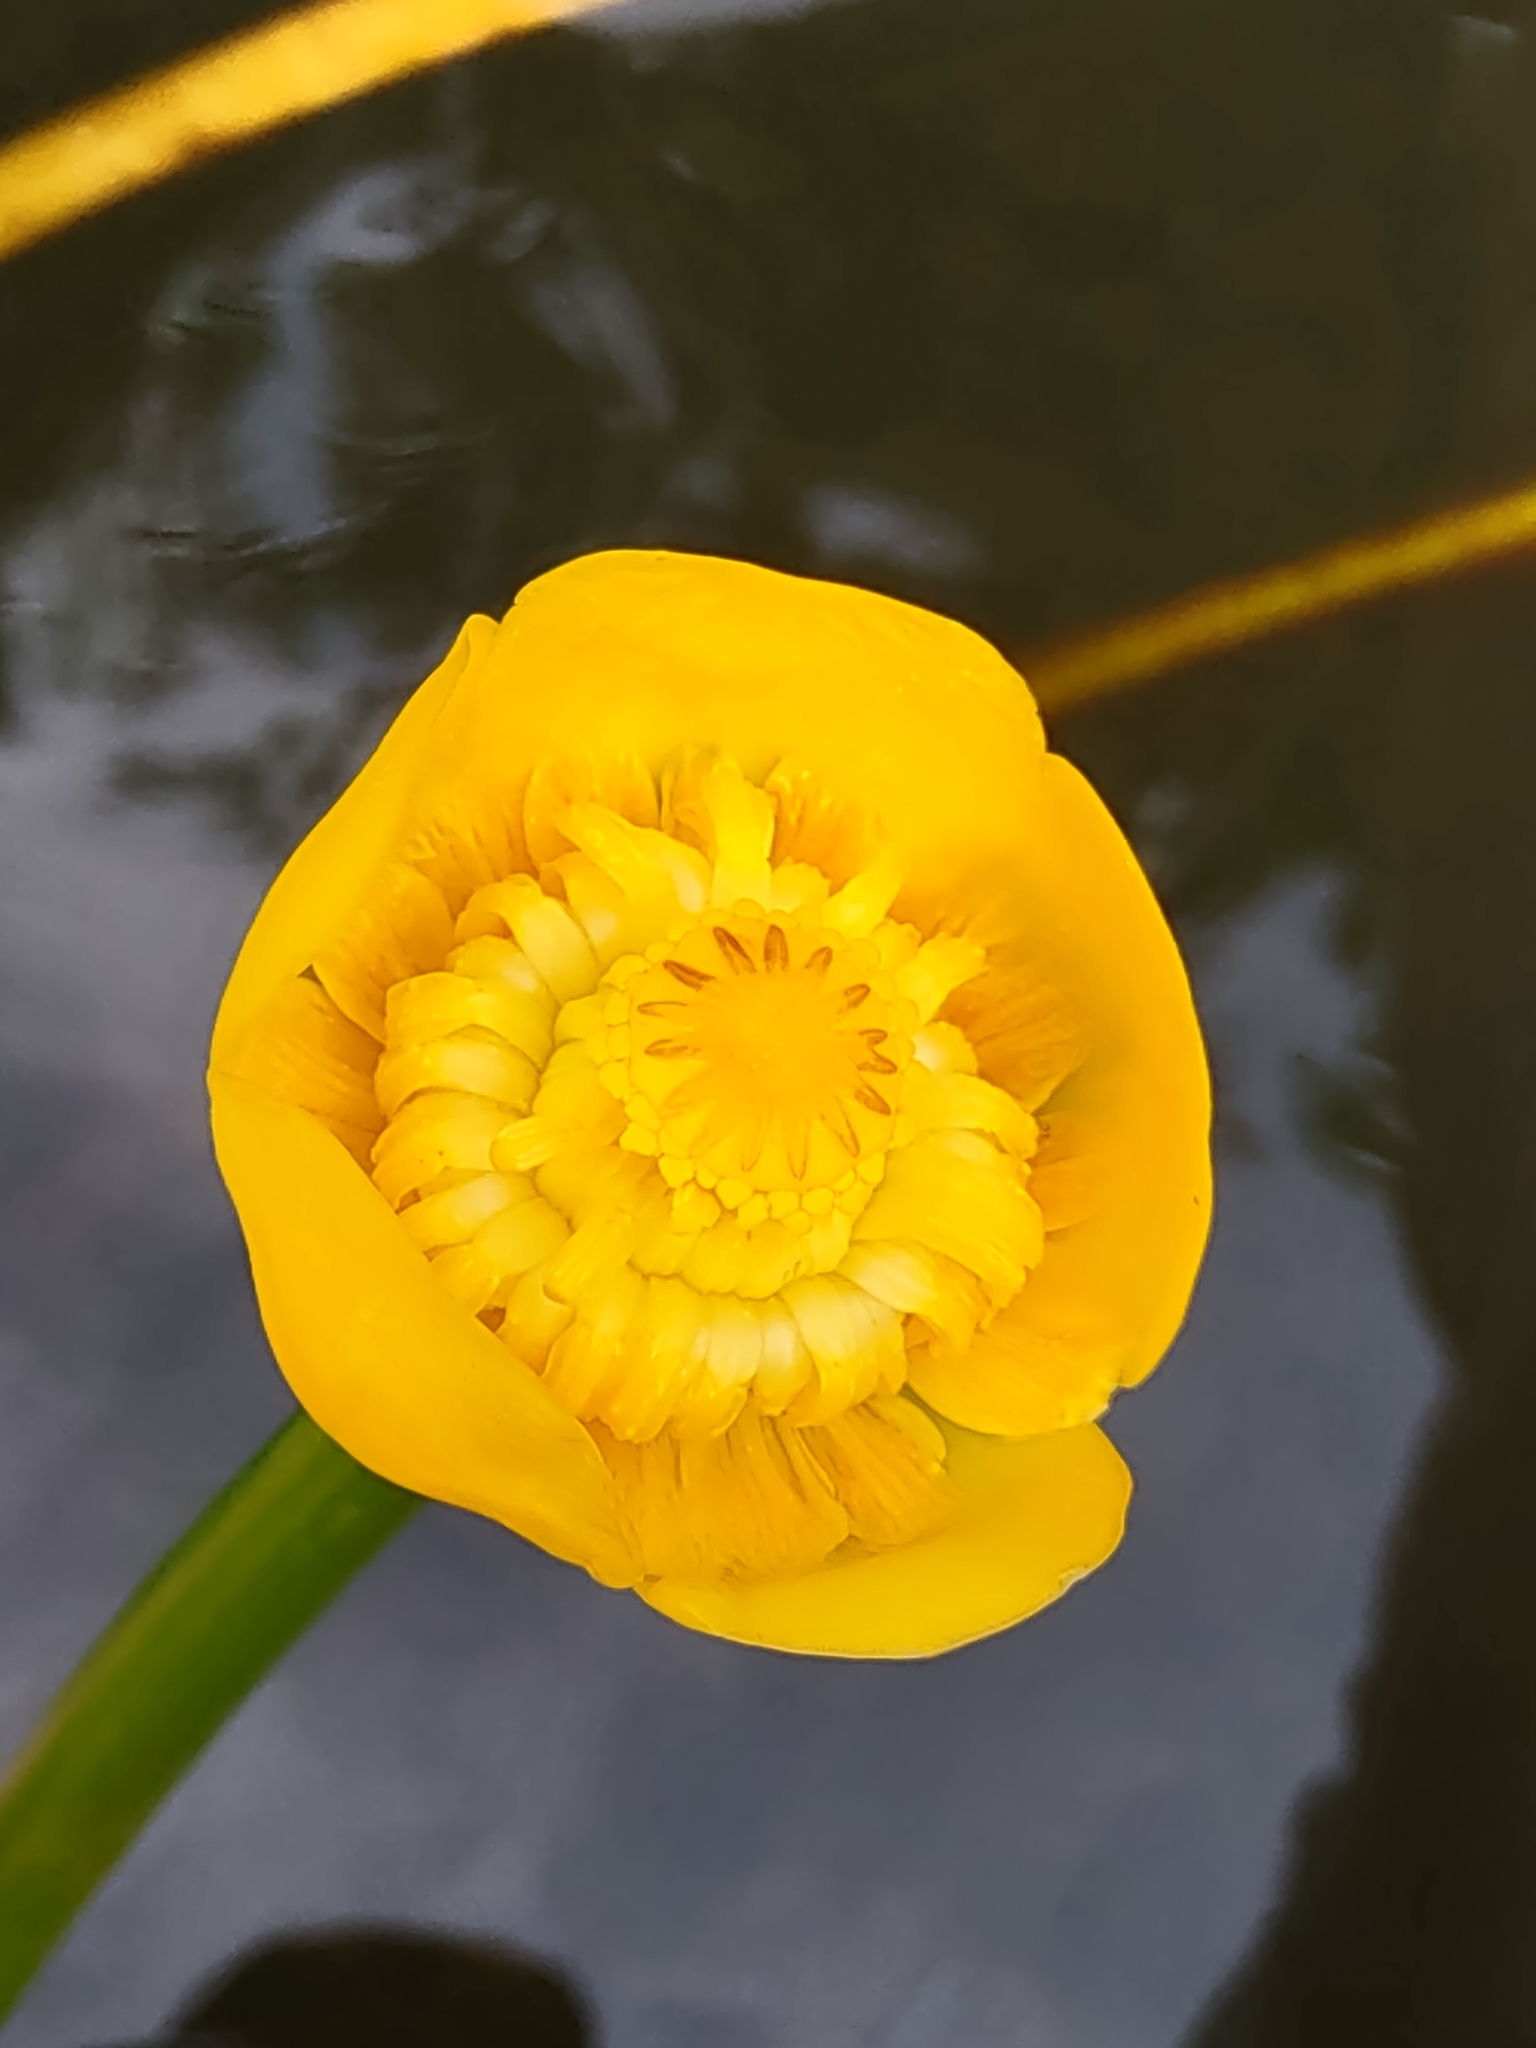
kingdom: Plantae
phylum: Tracheophyta
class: Magnoliopsida
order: Nymphaeales
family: Nymphaeaceae
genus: Nuphar
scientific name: Nuphar lutea
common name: Yellow water-lily
